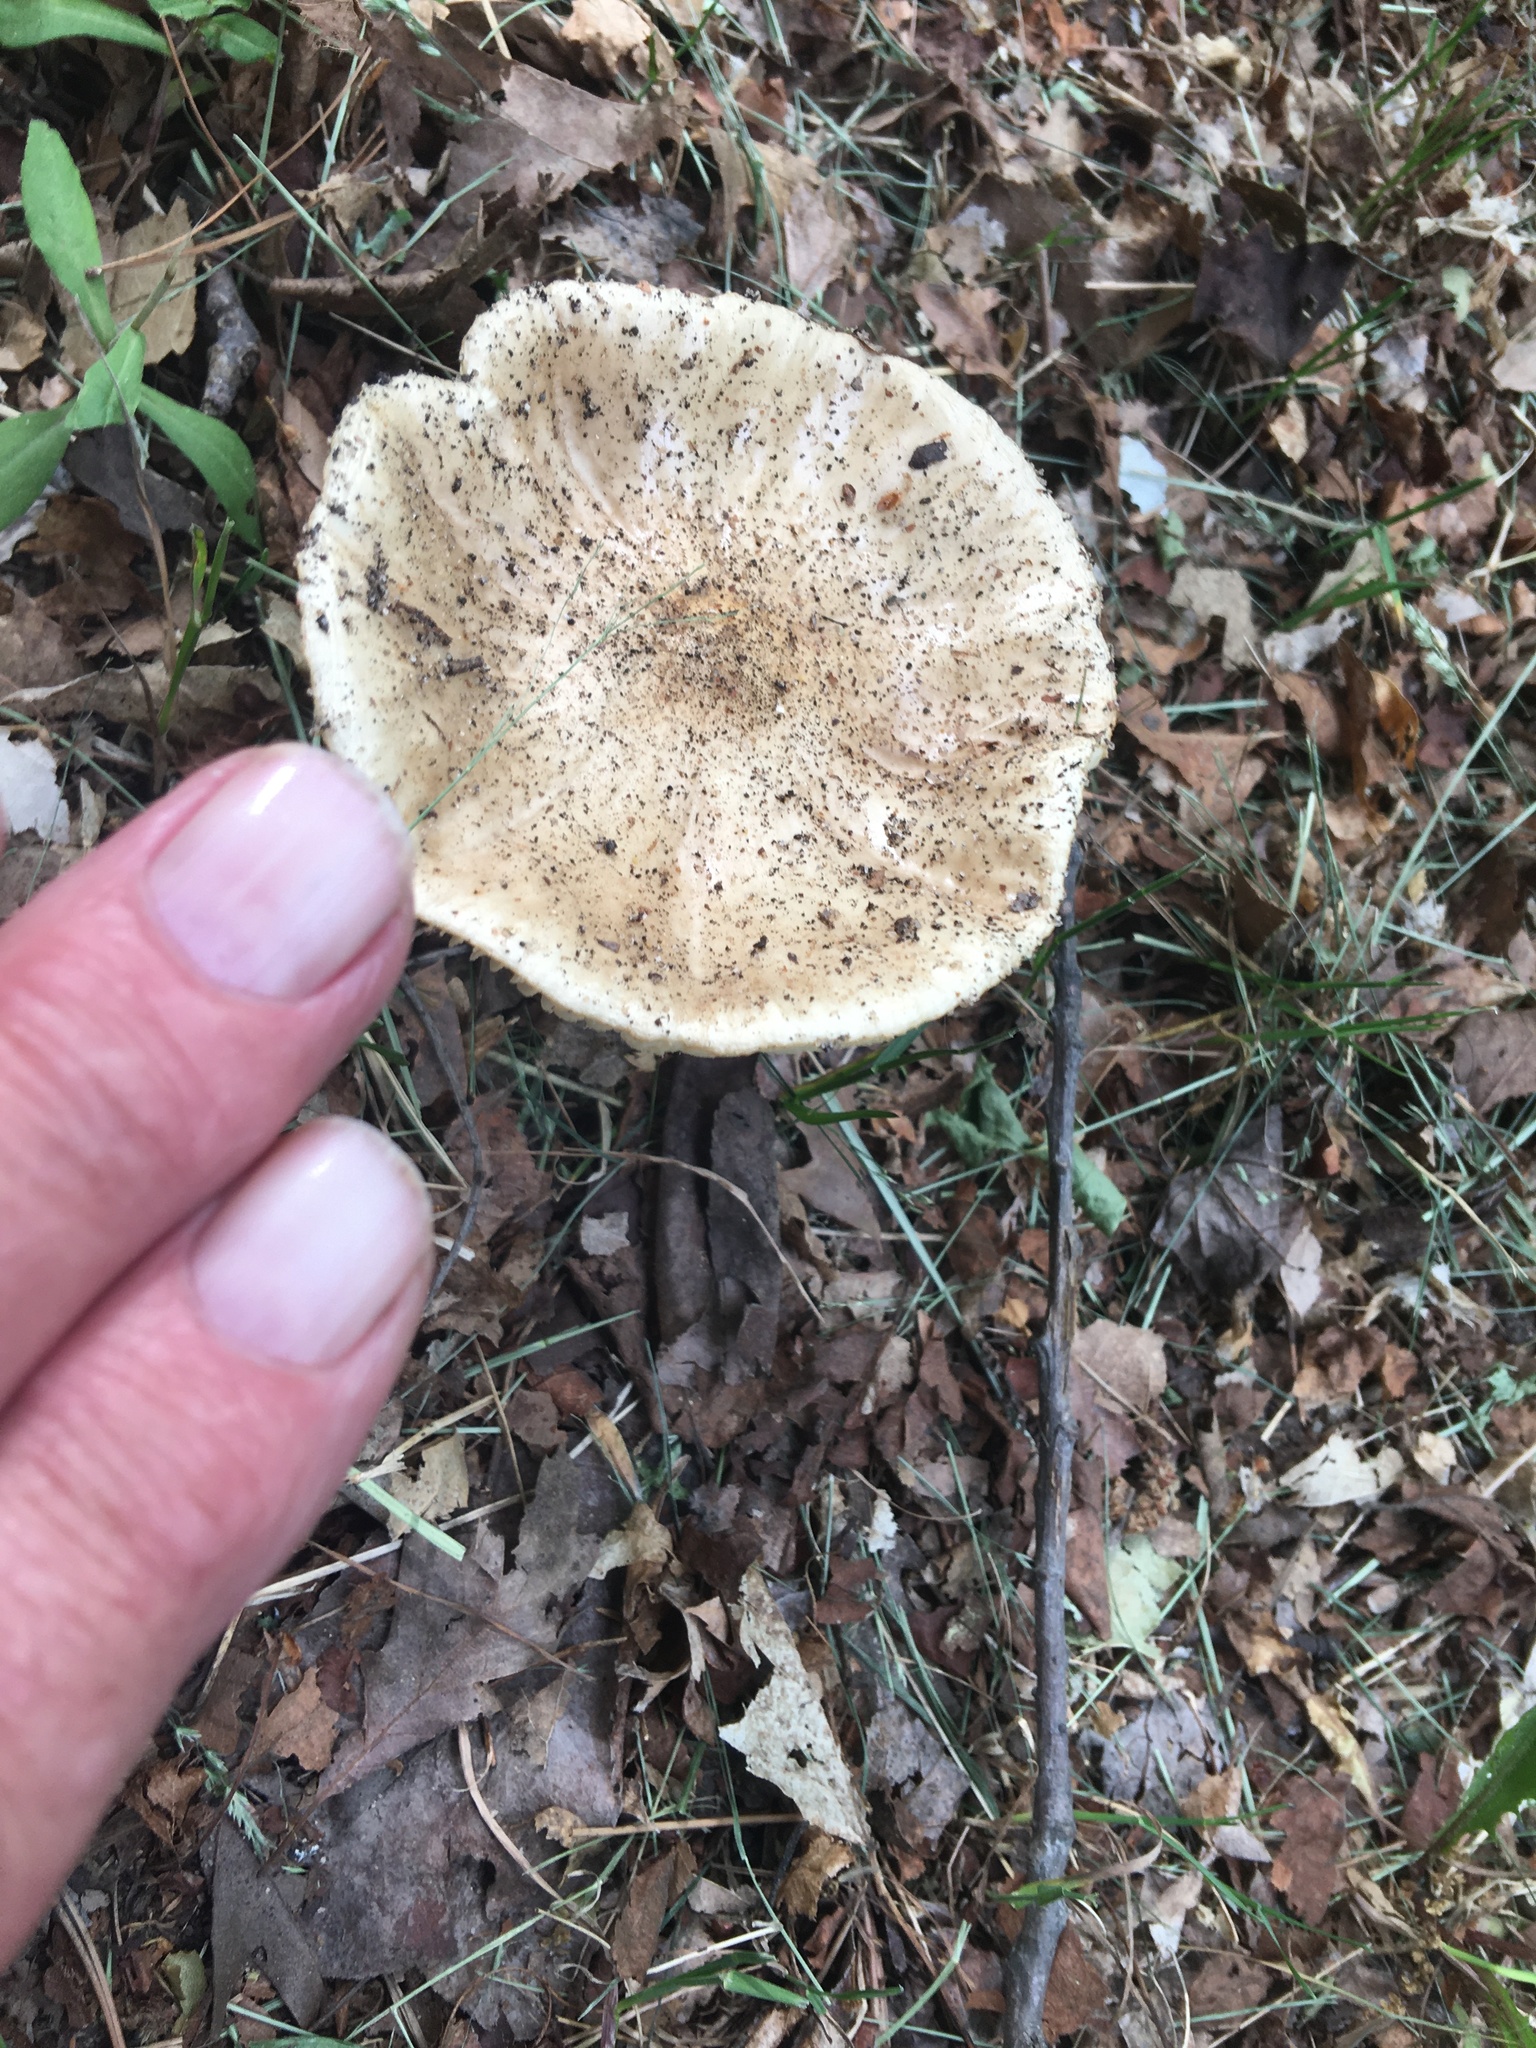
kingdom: Fungi
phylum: Basidiomycota
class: Agaricomycetes
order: Agaricales
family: Tricholomataceae
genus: Megacollybia
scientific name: Megacollybia rodmanii
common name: Eastern american platterful mushroom
